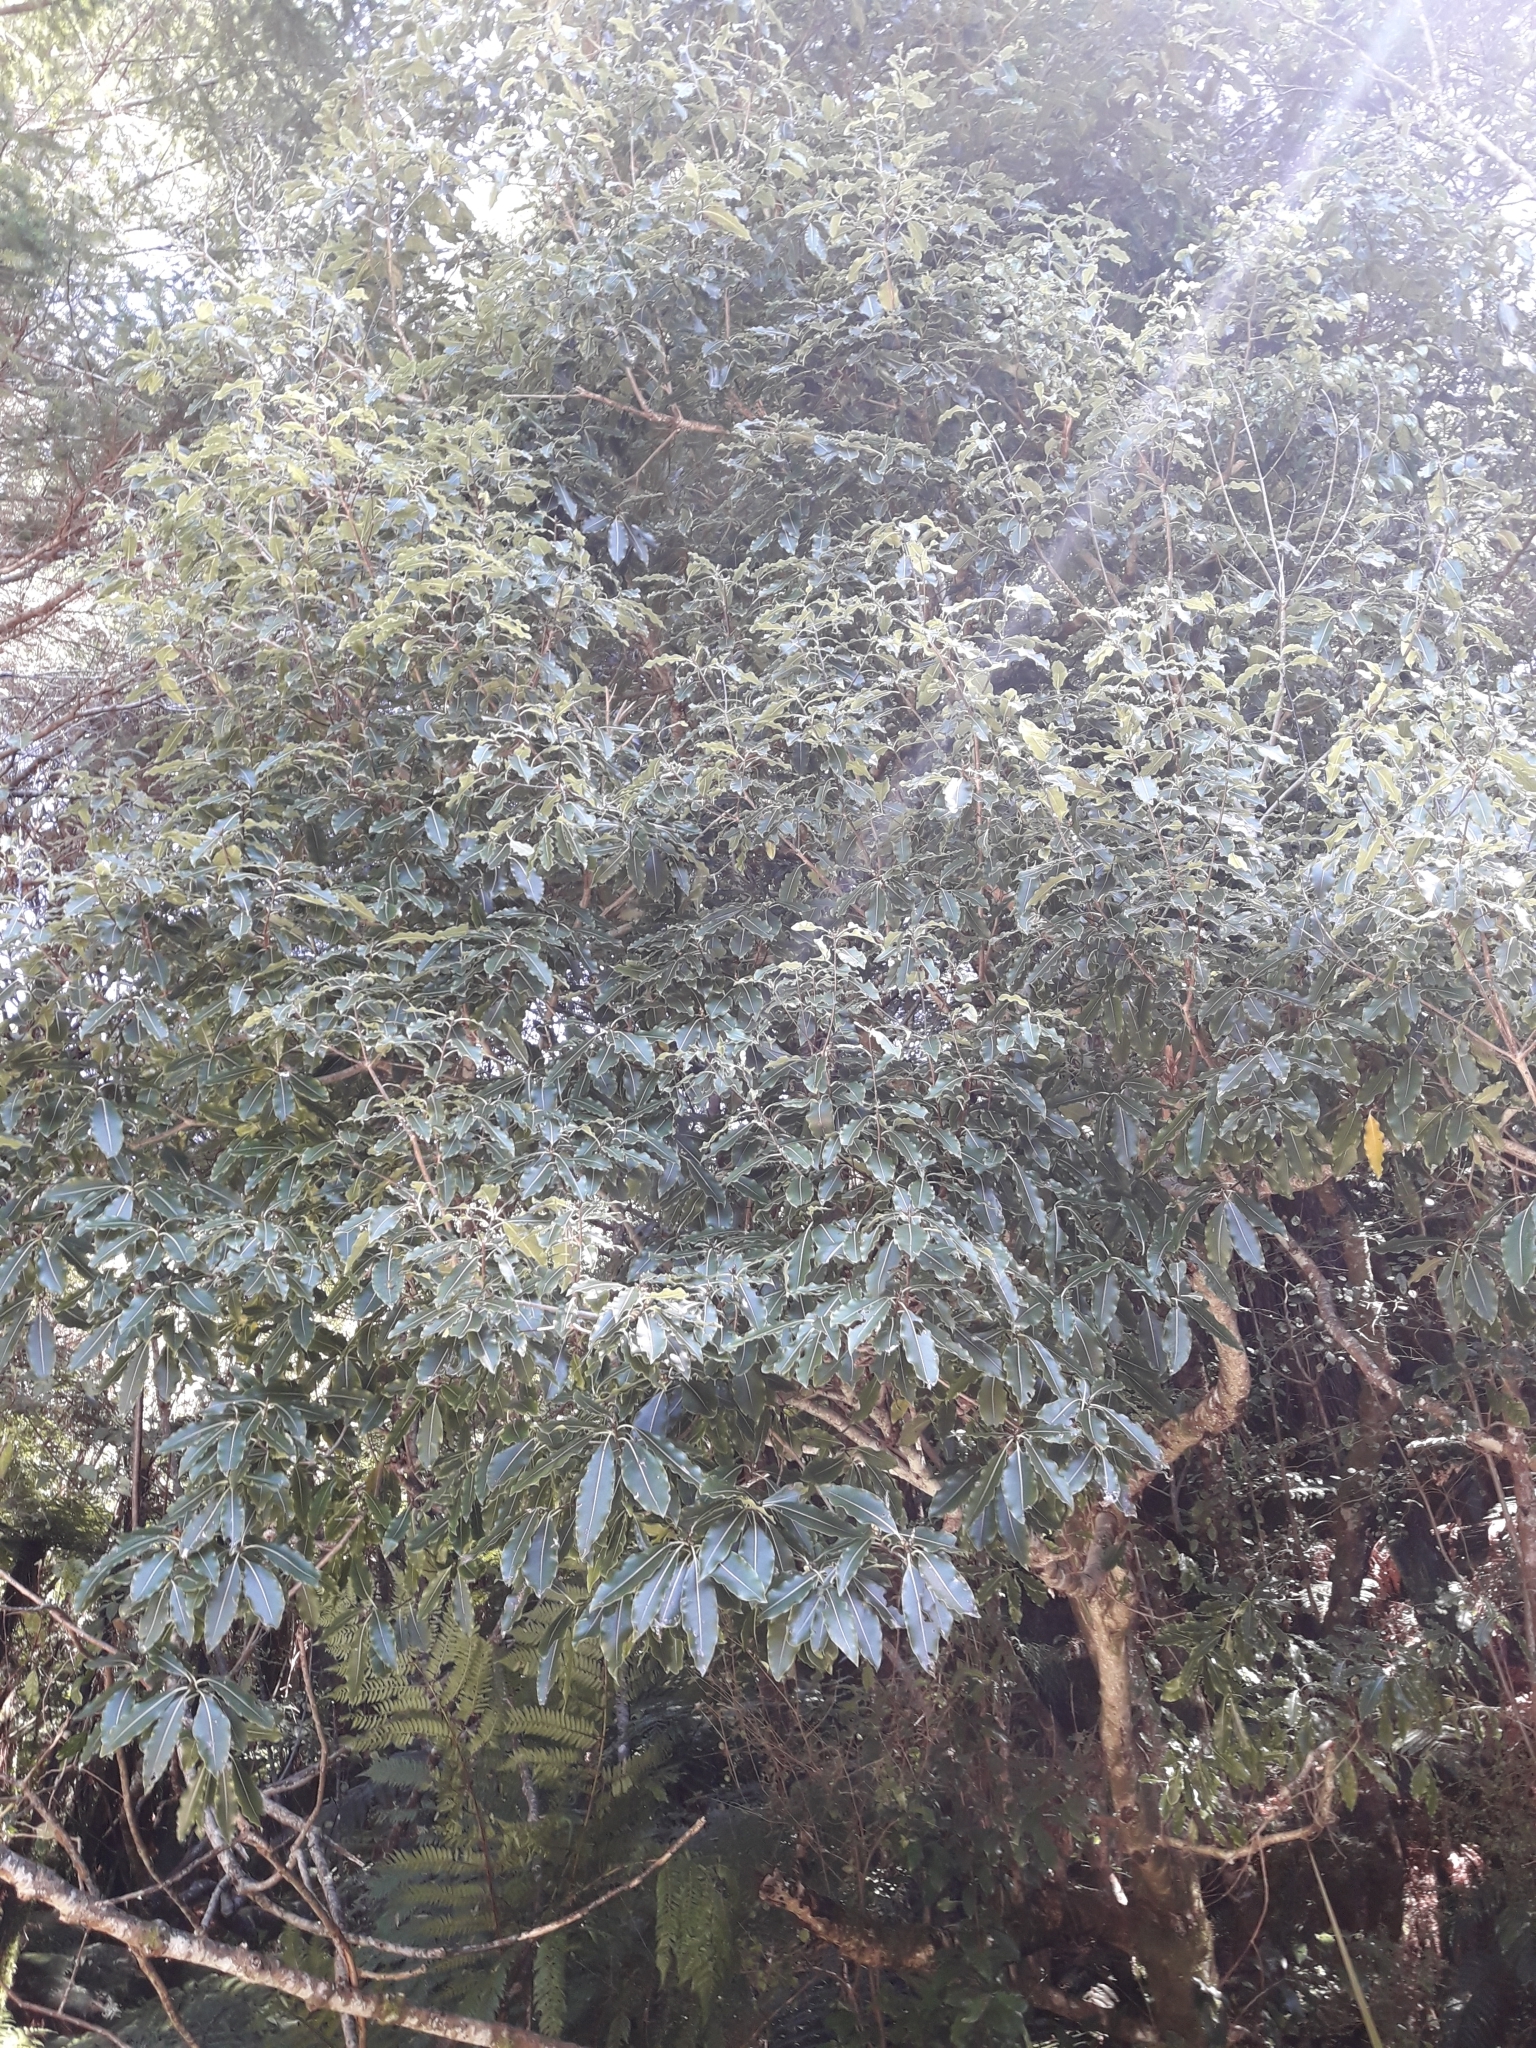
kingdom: Plantae
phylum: Tracheophyta
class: Magnoliopsida
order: Apiales
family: Pittosporaceae
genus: Pittosporum
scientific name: Pittosporum eugenioides
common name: Lemonwood
